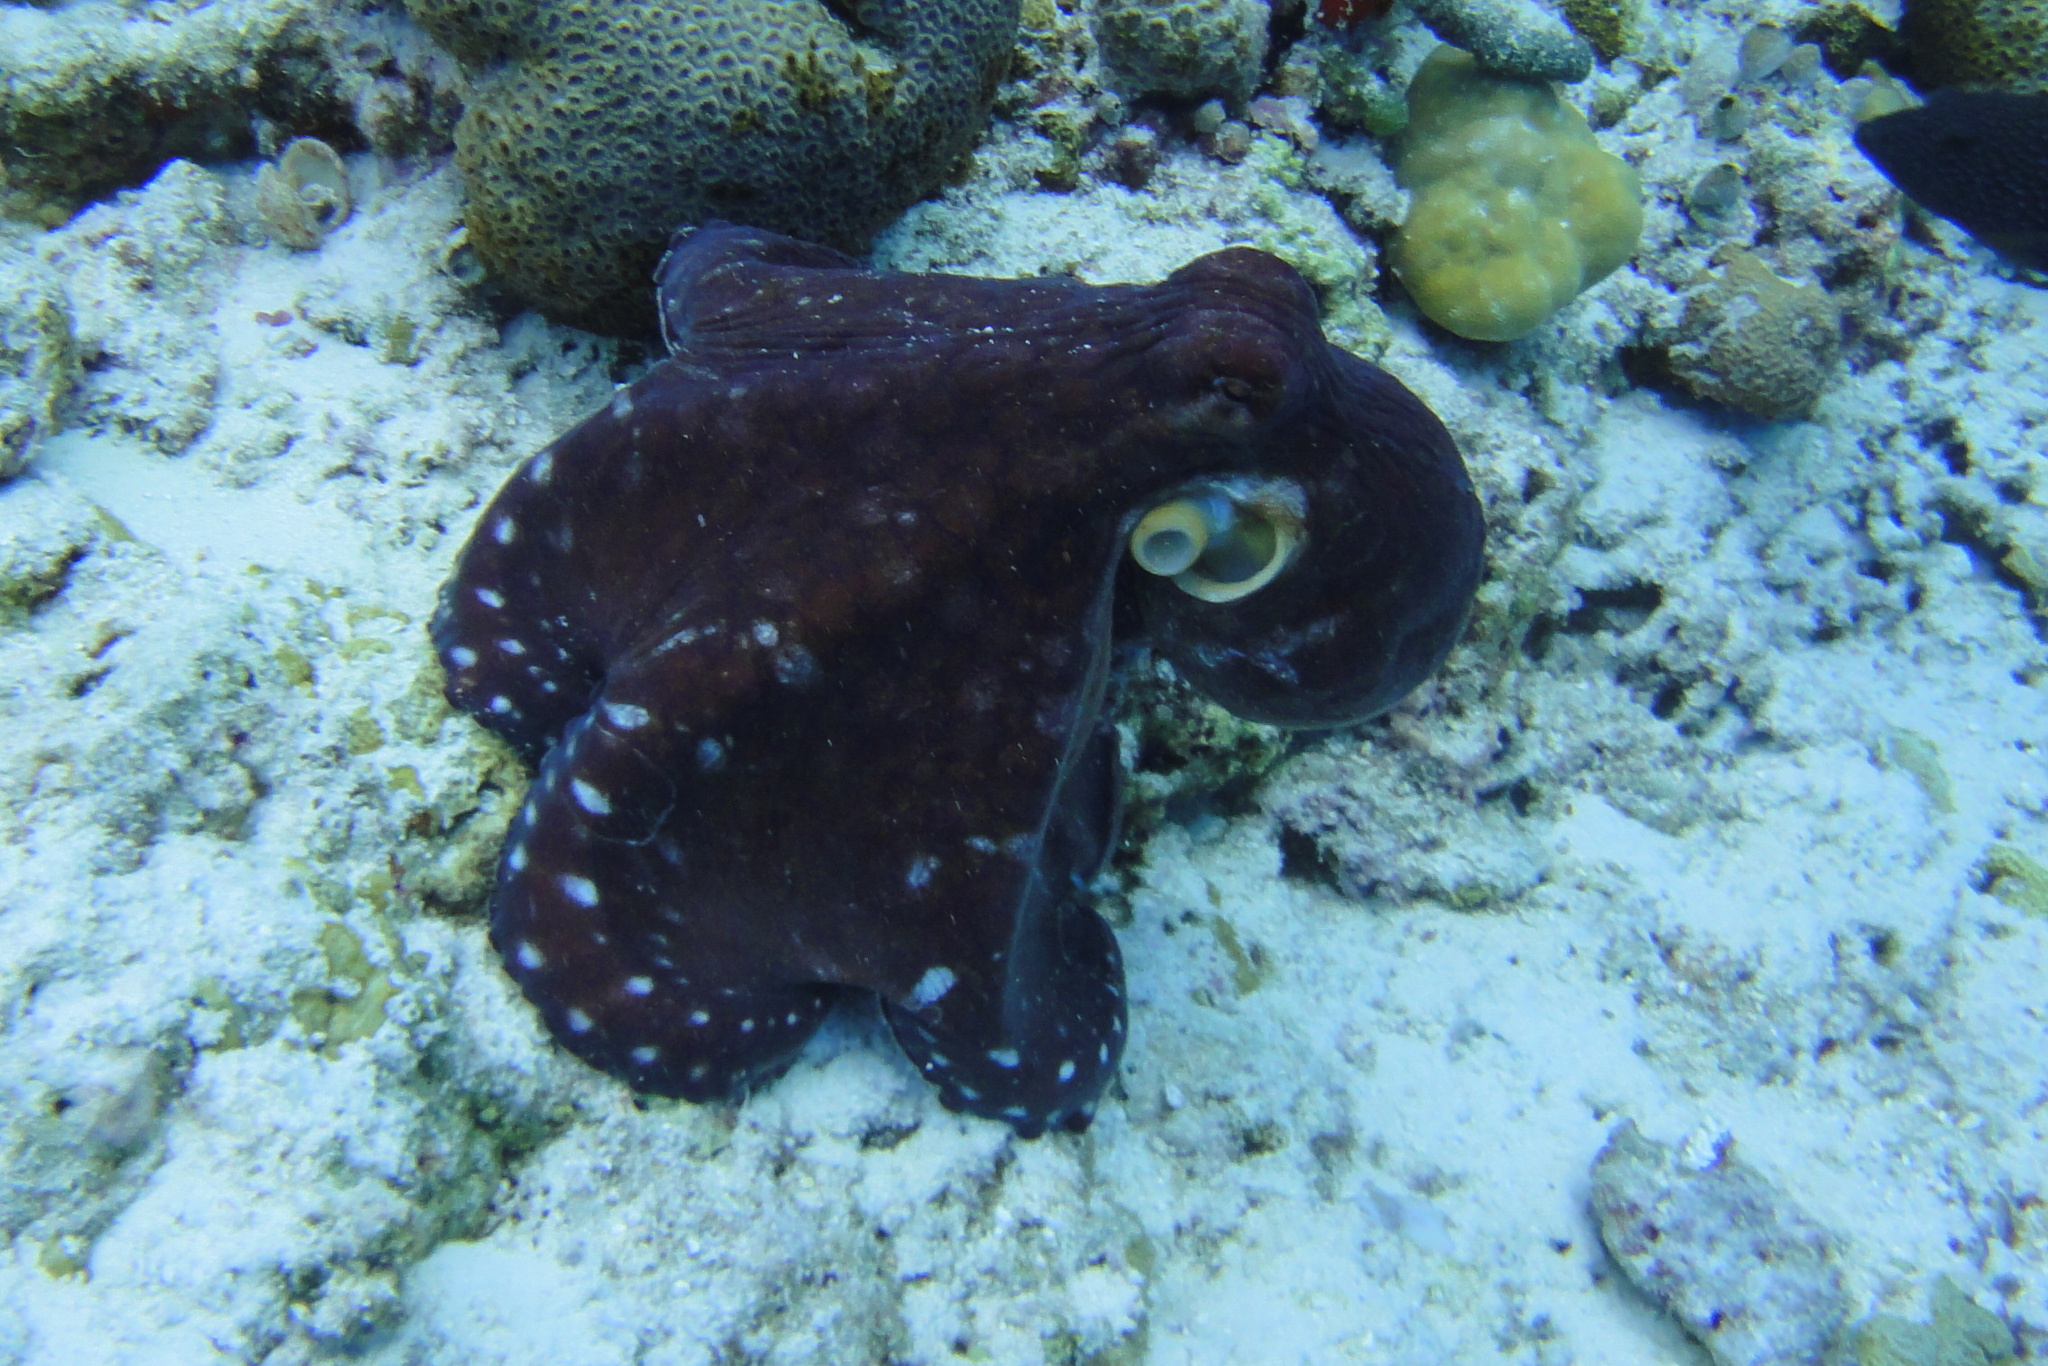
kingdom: Animalia
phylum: Mollusca
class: Cephalopoda
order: Octopoda
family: Octopodidae
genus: Octopus
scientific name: Octopus cyanea
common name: Cyane's octopus
